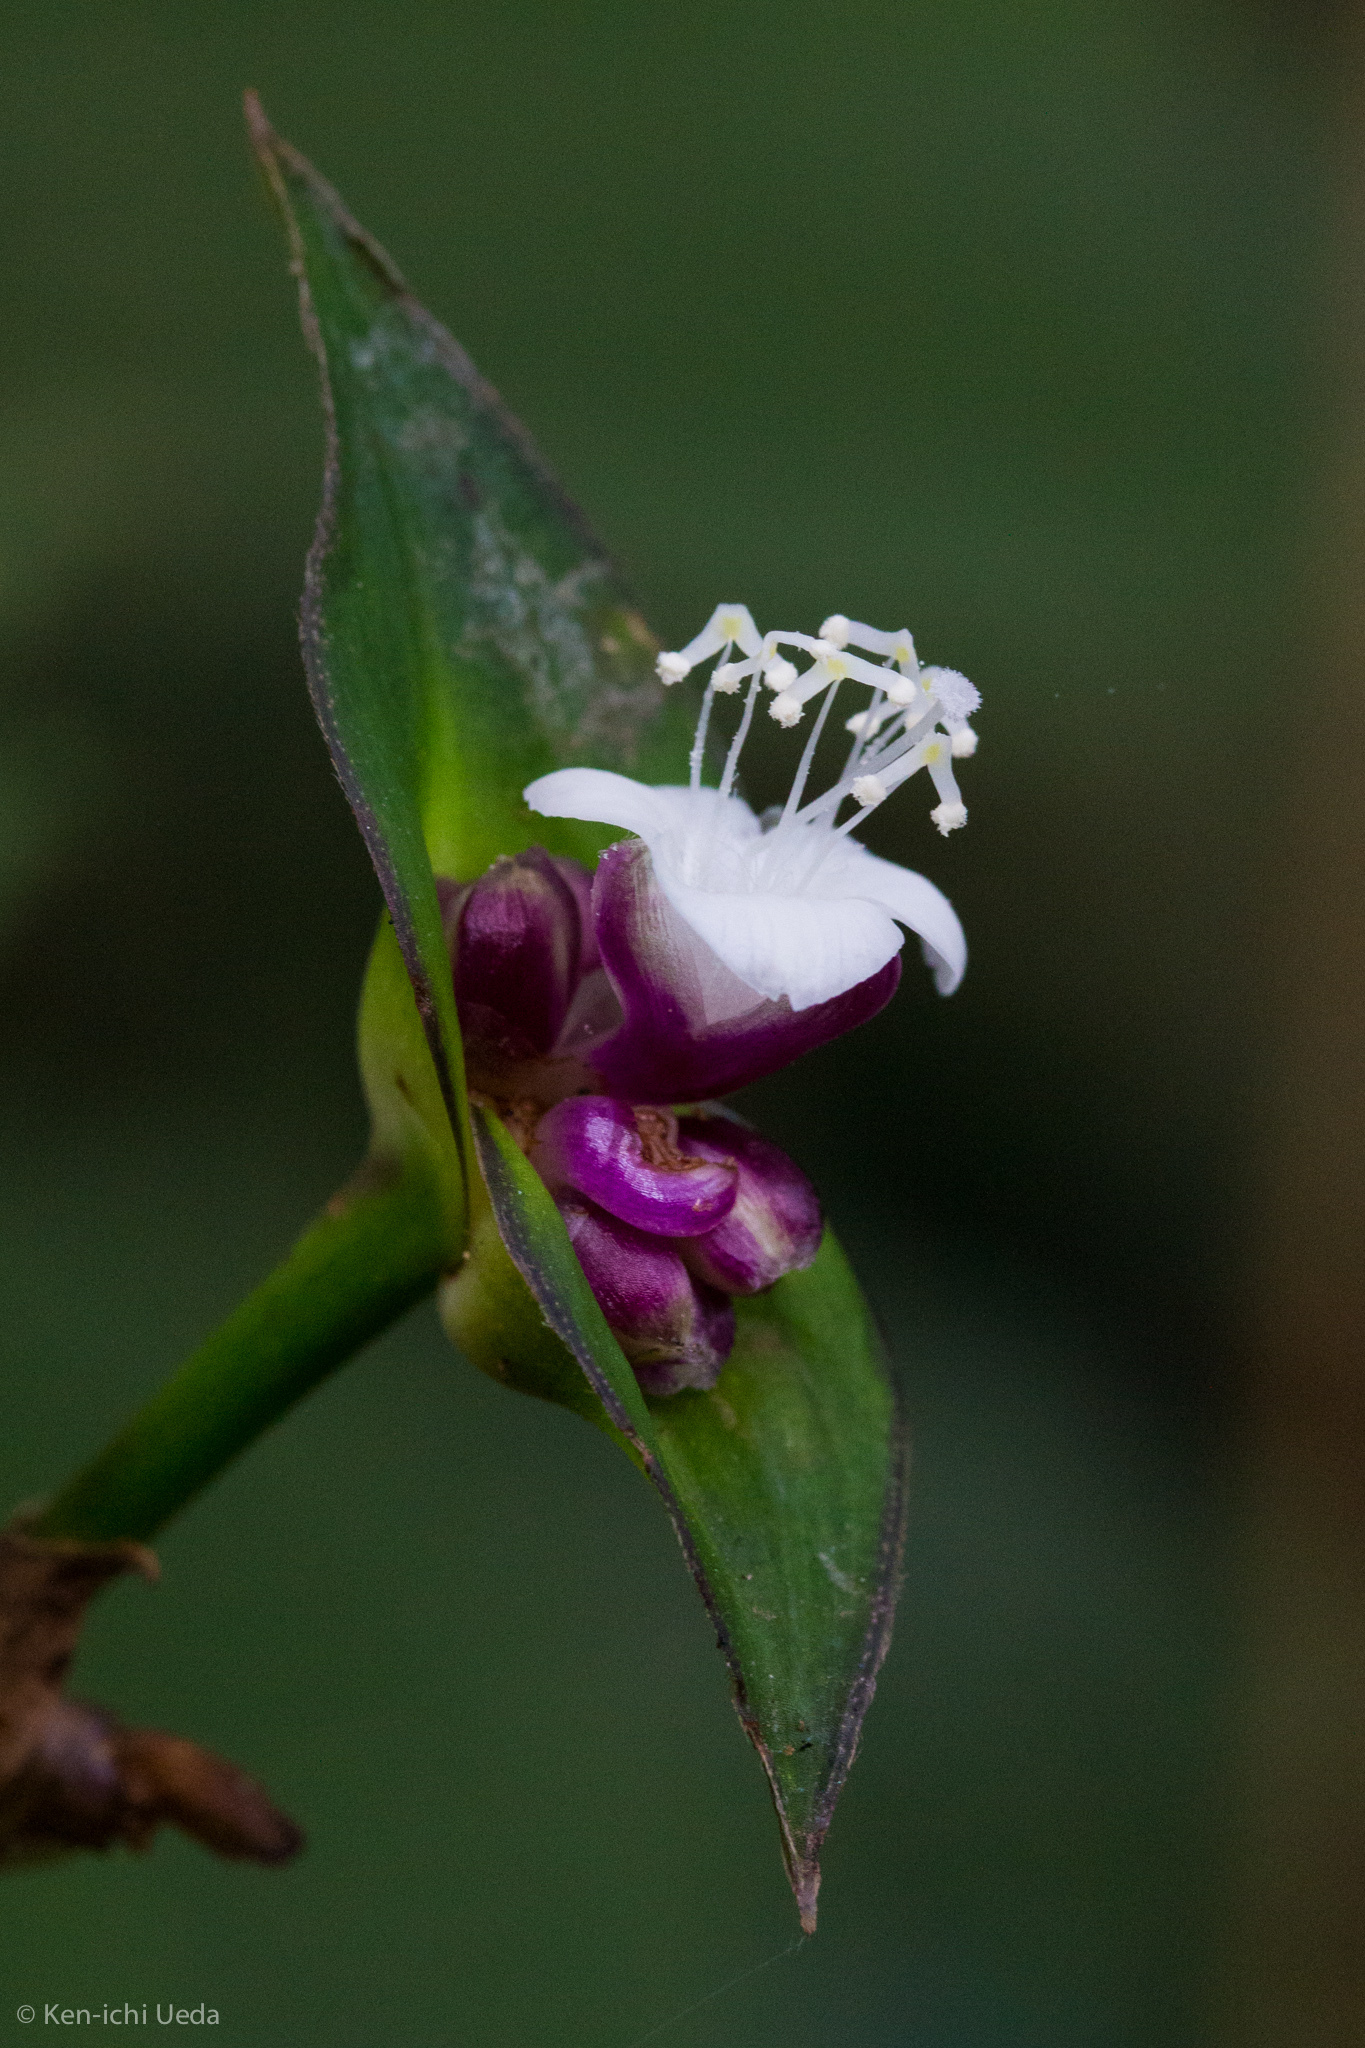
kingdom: Plantae
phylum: Tracheophyta
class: Liliopsida
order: Commelinales
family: Commelinaceae
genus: Tradescantia
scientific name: Tradescantia zanonia
